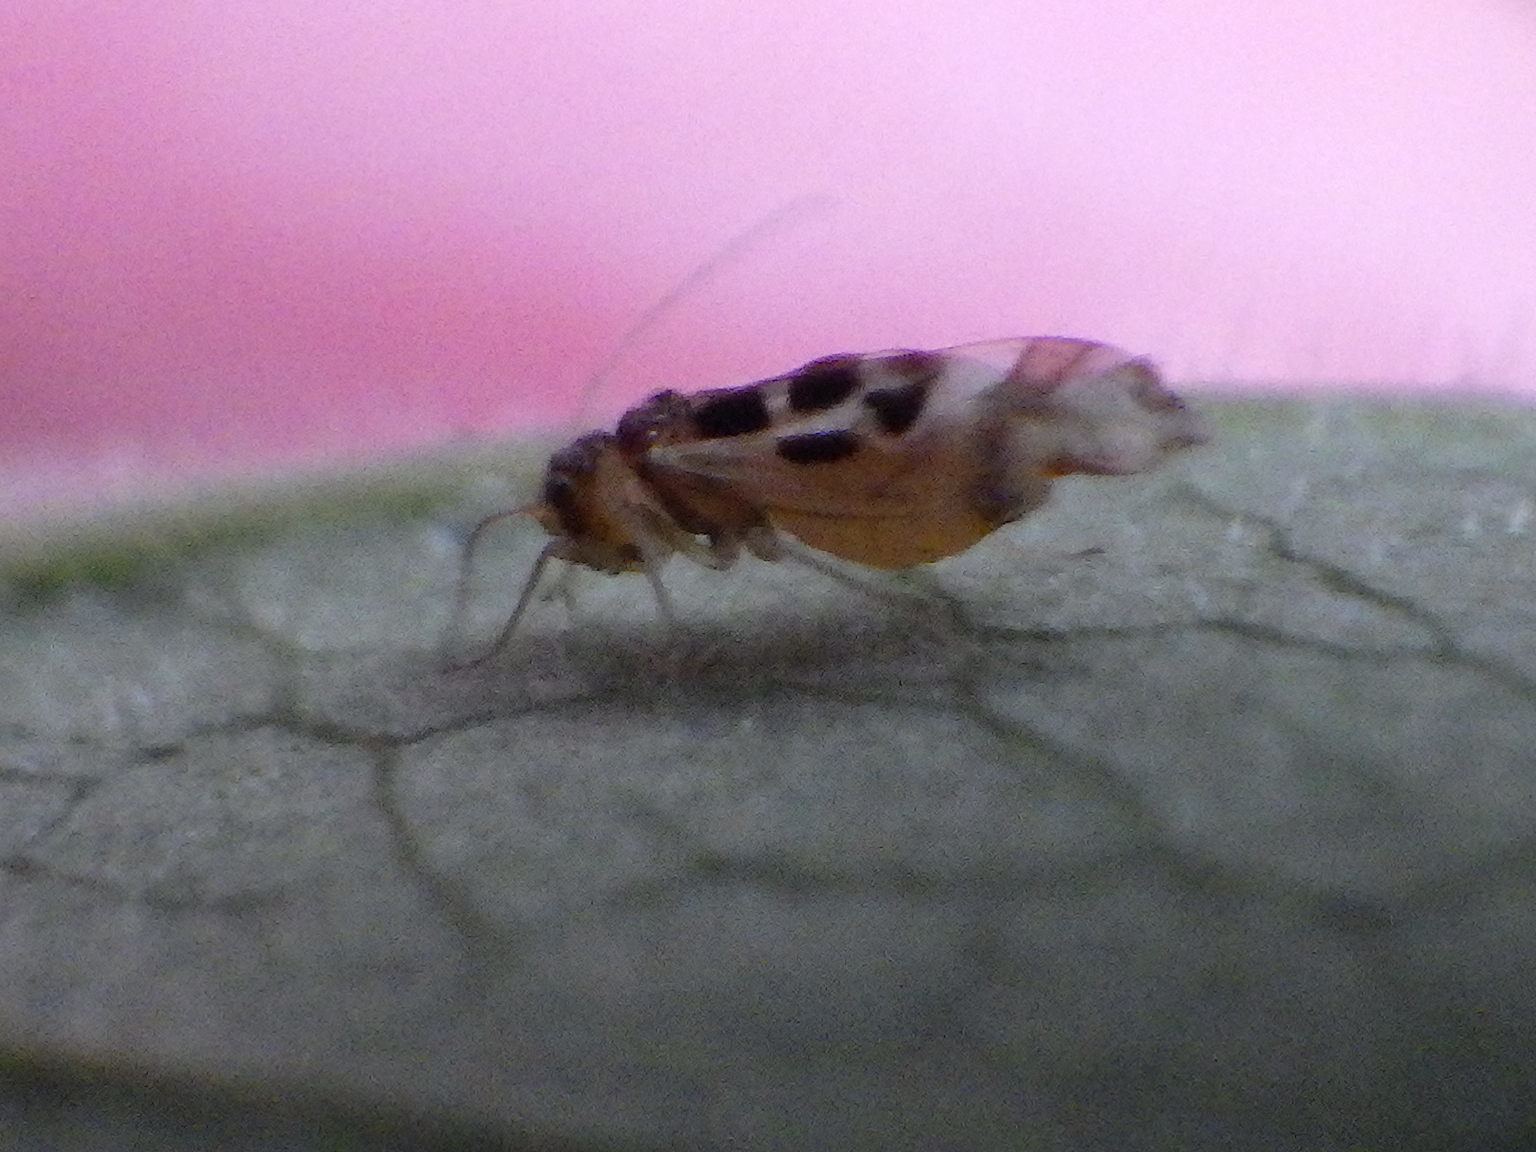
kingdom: Animalia
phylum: Arthropoda
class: Insecta
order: Psocodea
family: Stenopsocidae
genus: Graphopsocus
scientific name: Graphopsocus cruciatus
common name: Lizard bark louse
